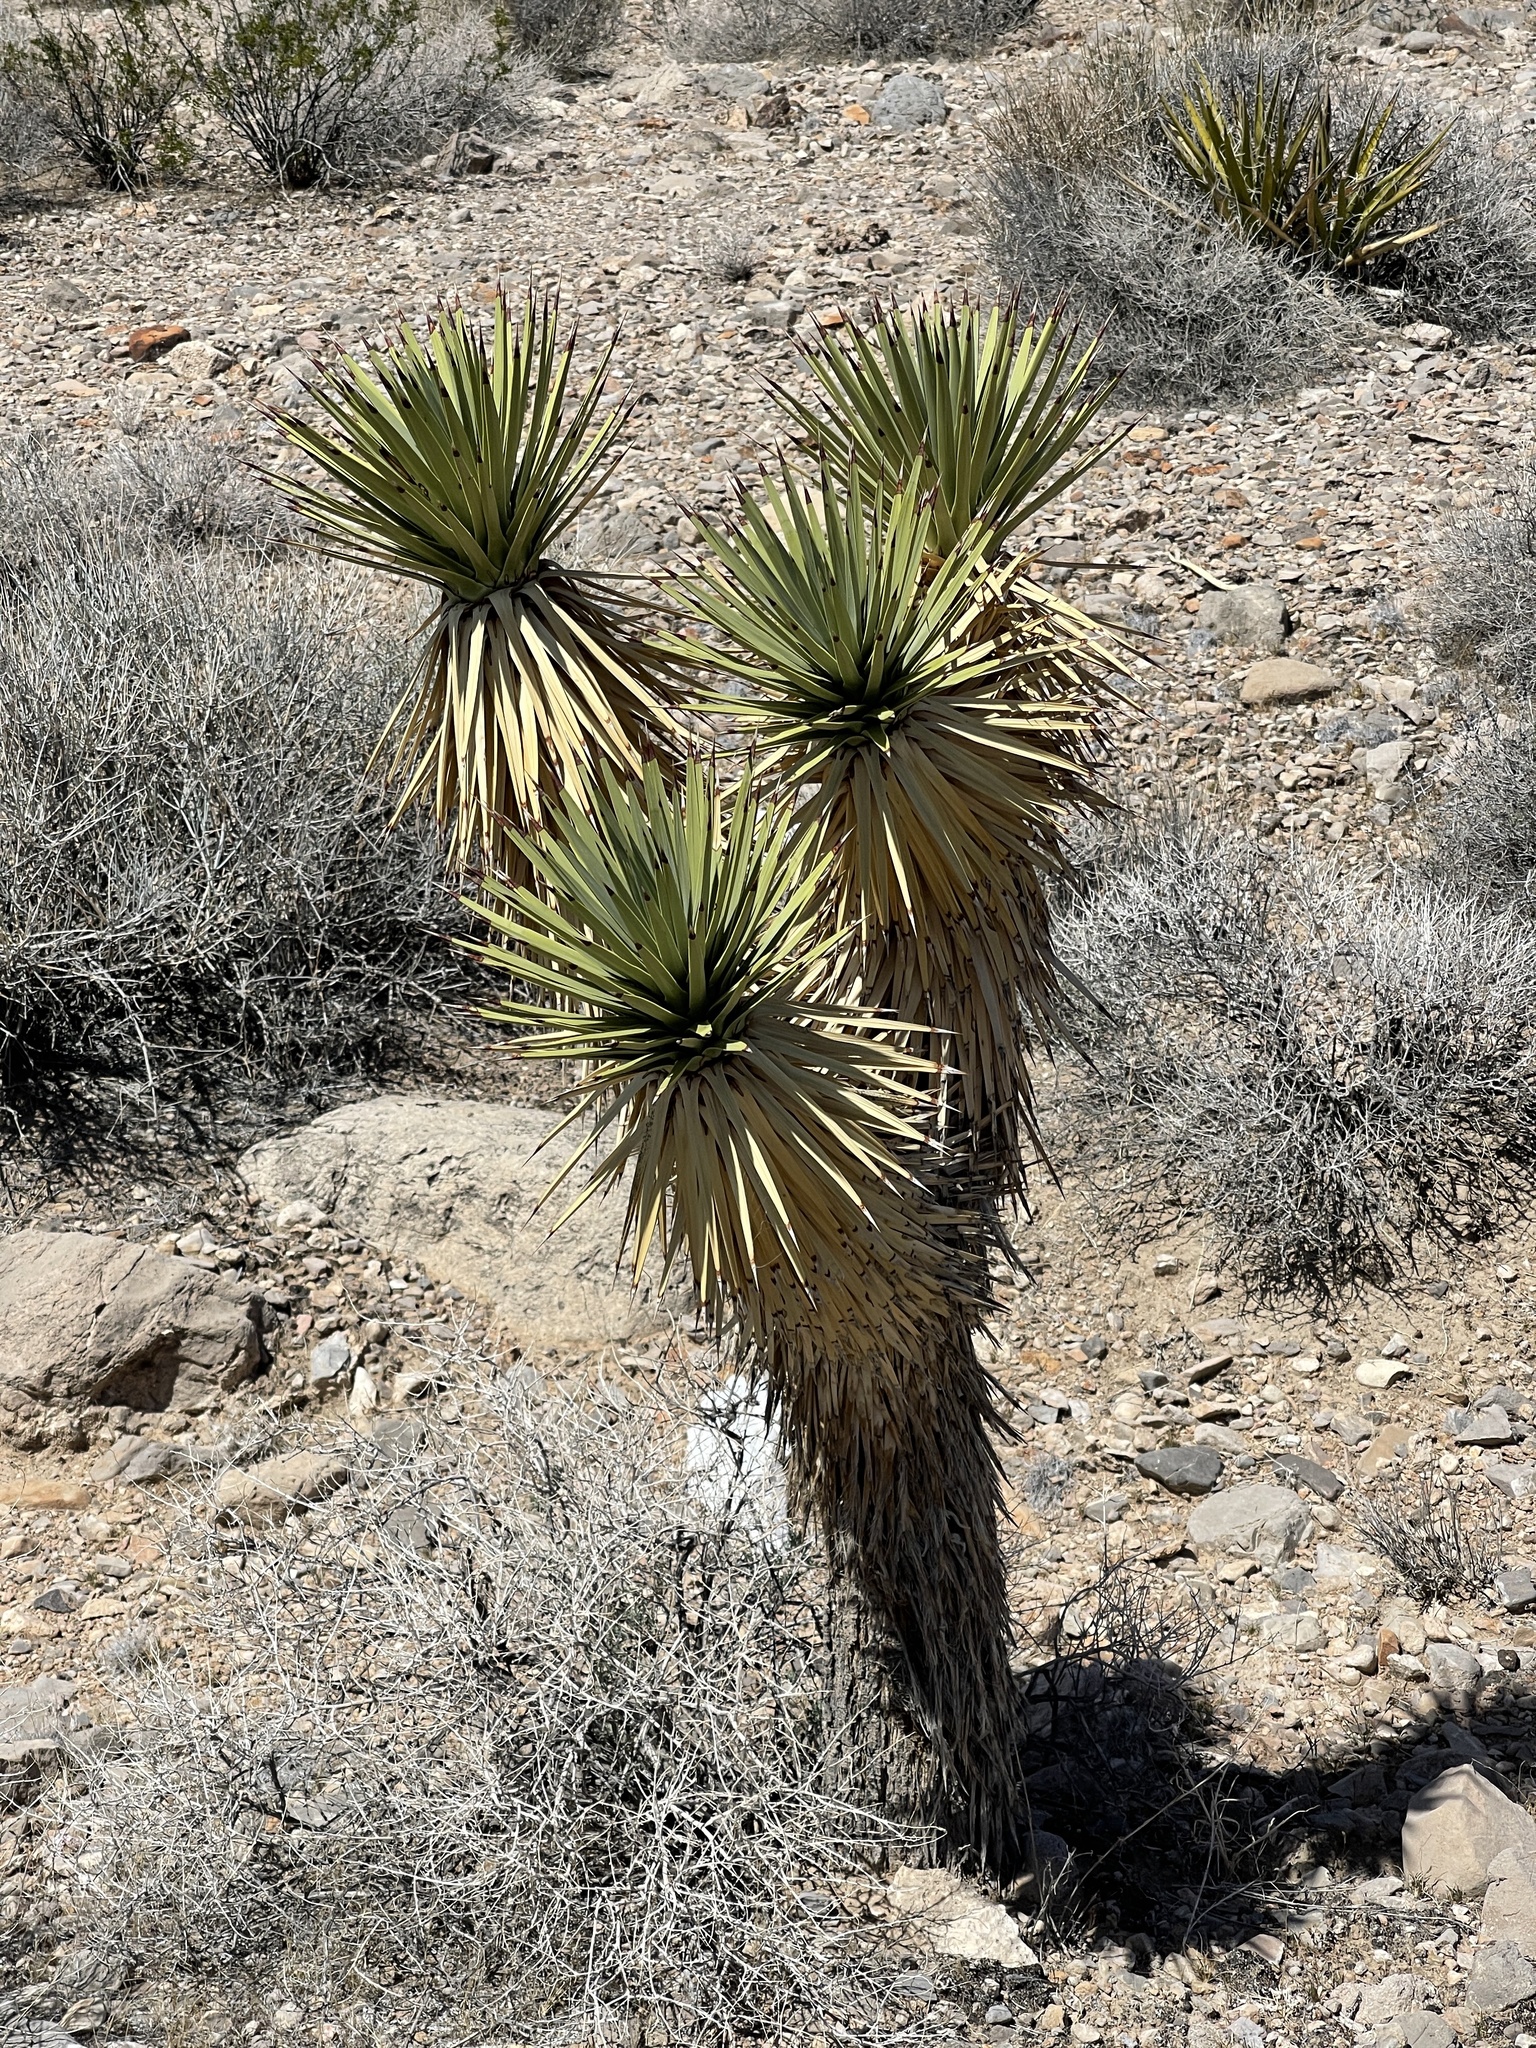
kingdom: Plantae
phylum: Tracheophyta
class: Liliopsida
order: Asparagales
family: Asparagaceae
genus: Yucca
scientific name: Yucca brevifolia
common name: Joshua tree
